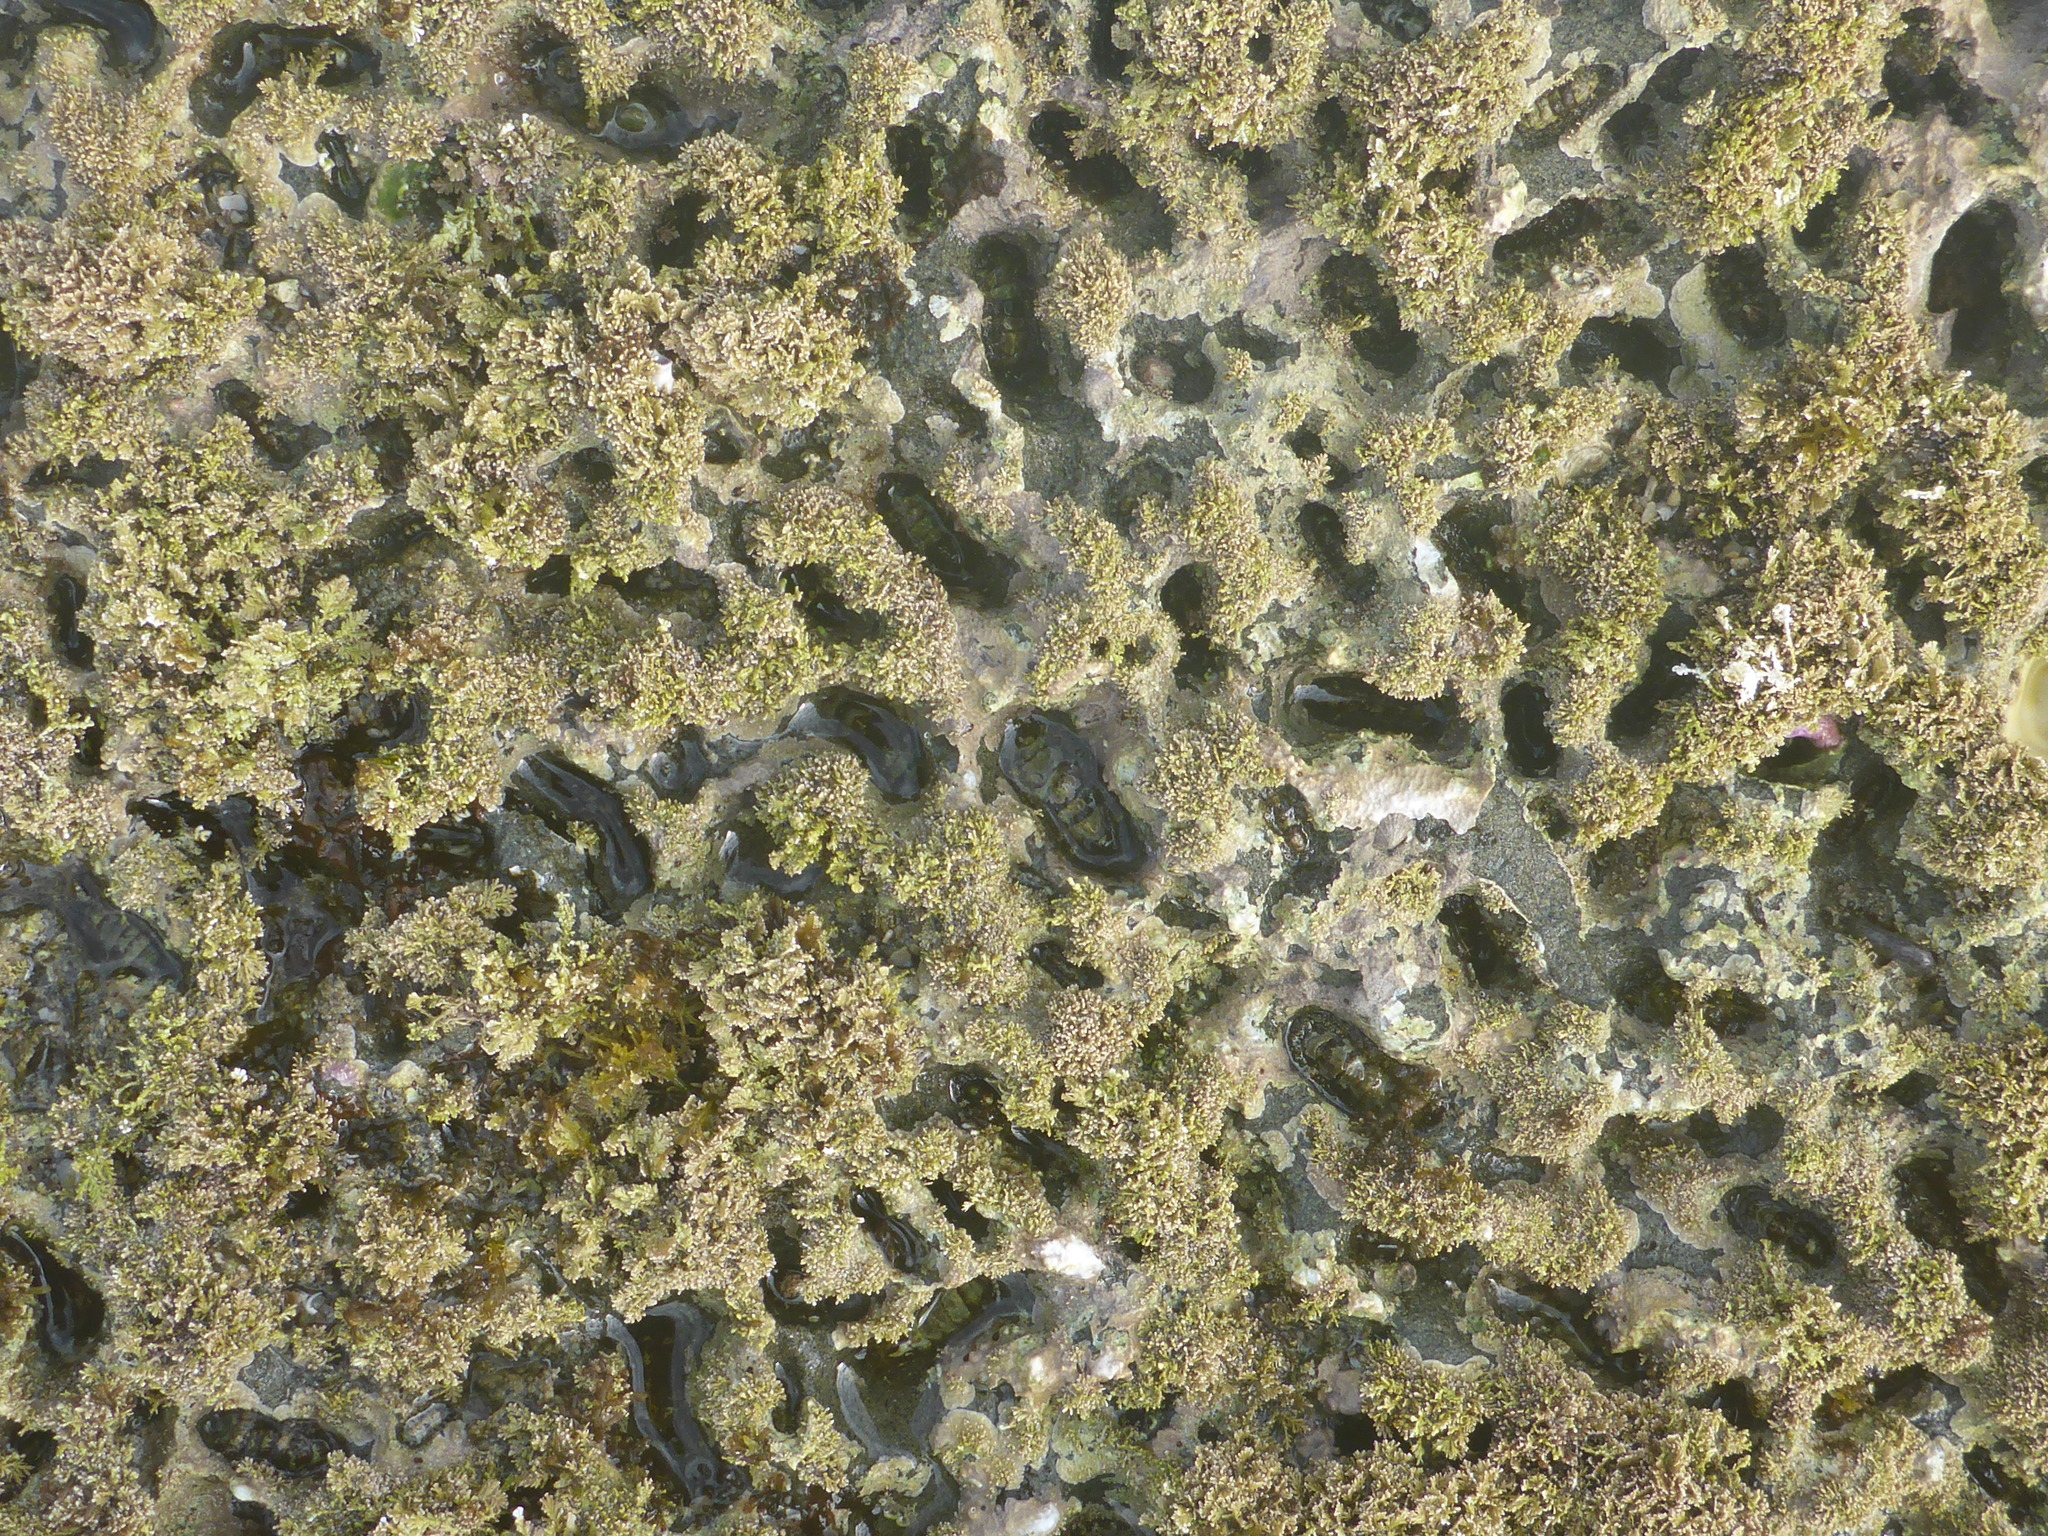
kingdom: Animalia
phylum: Mollusca
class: Polyplacophora
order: Chitonida
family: Tonicellidae
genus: Nuttallina
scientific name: Nuttallina californica
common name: California nuttall chiton
